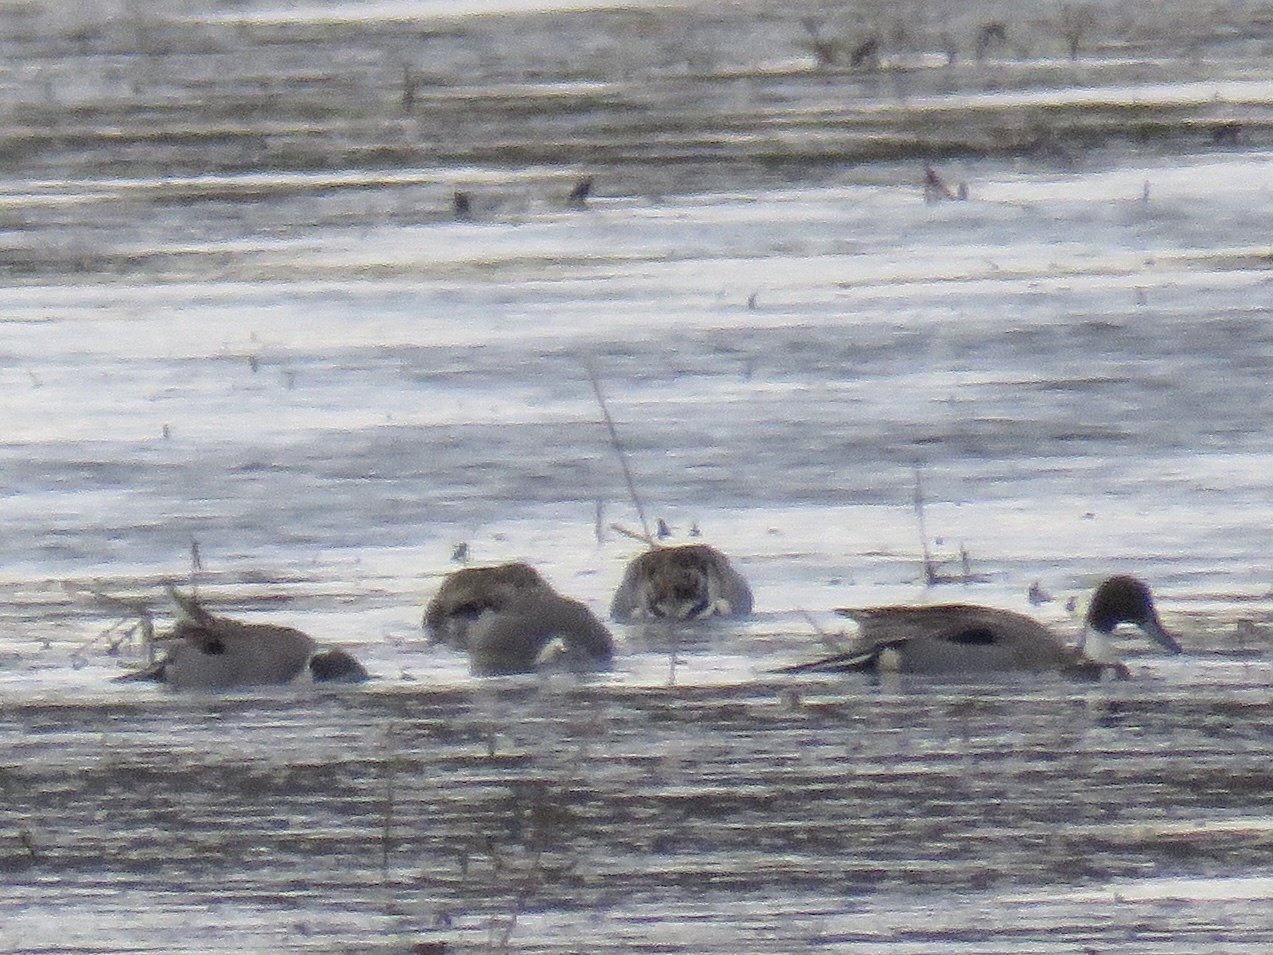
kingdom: Animalia
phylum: Chordata
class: Aves
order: Anseriformes
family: Anatidae
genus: Anas
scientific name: Anas acuta
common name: Northern pintail
